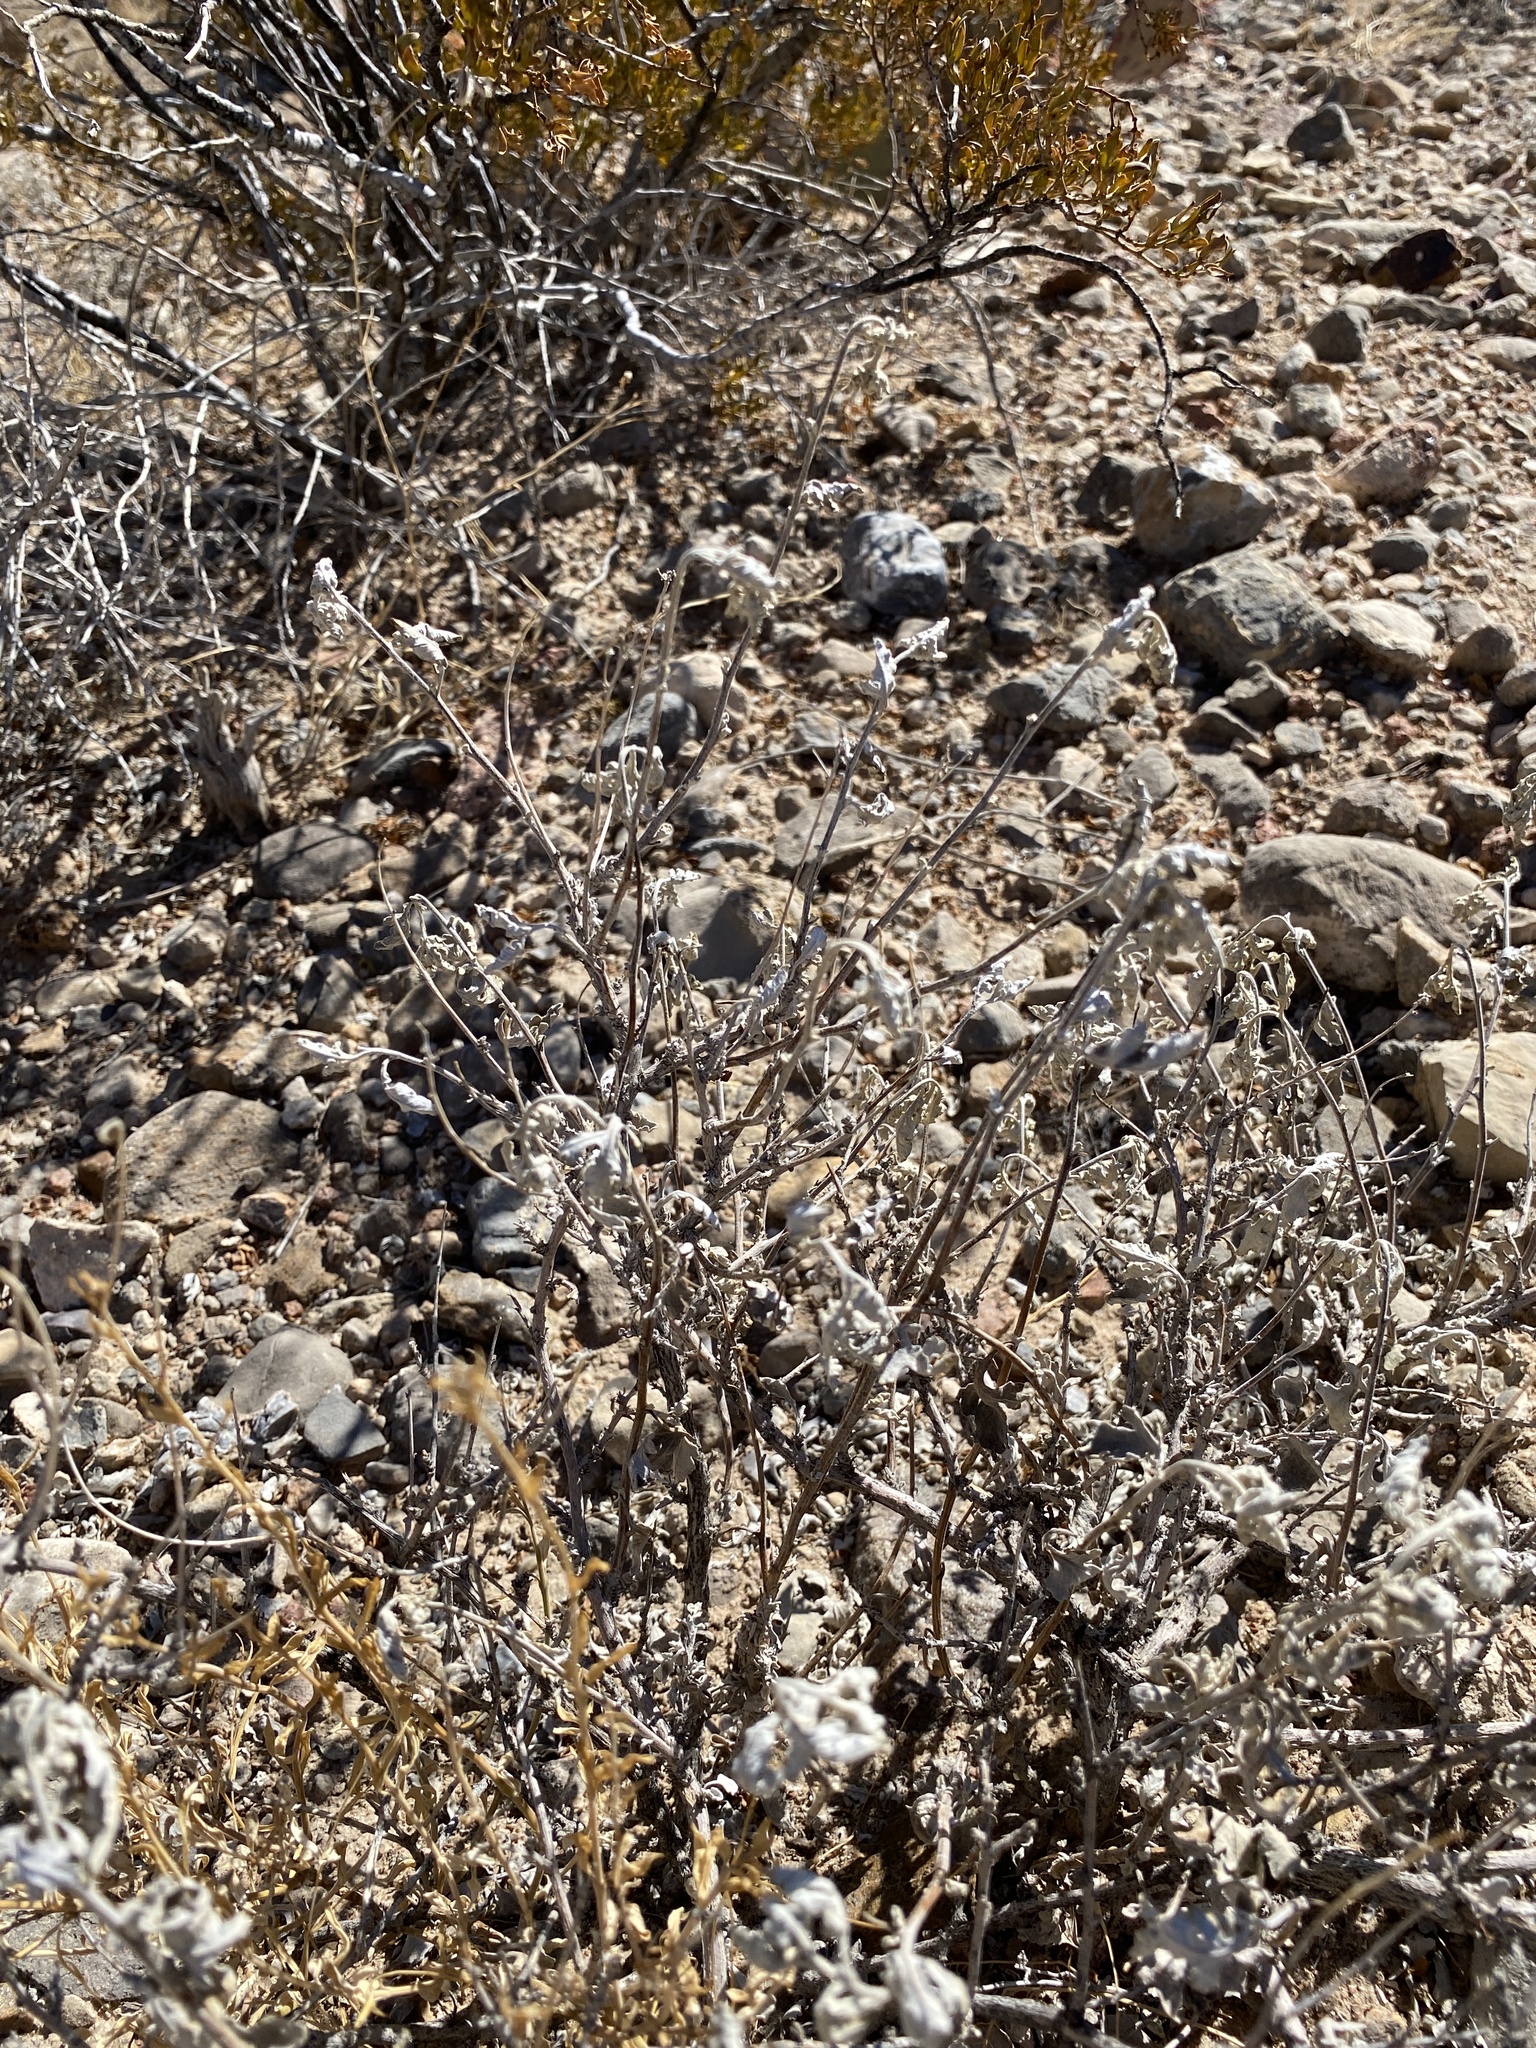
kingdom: Plantae
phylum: Tracheophyta
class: Magnoliopsida
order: Asterales
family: Asteraceae
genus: Parthenium
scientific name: Parthenium incanum
